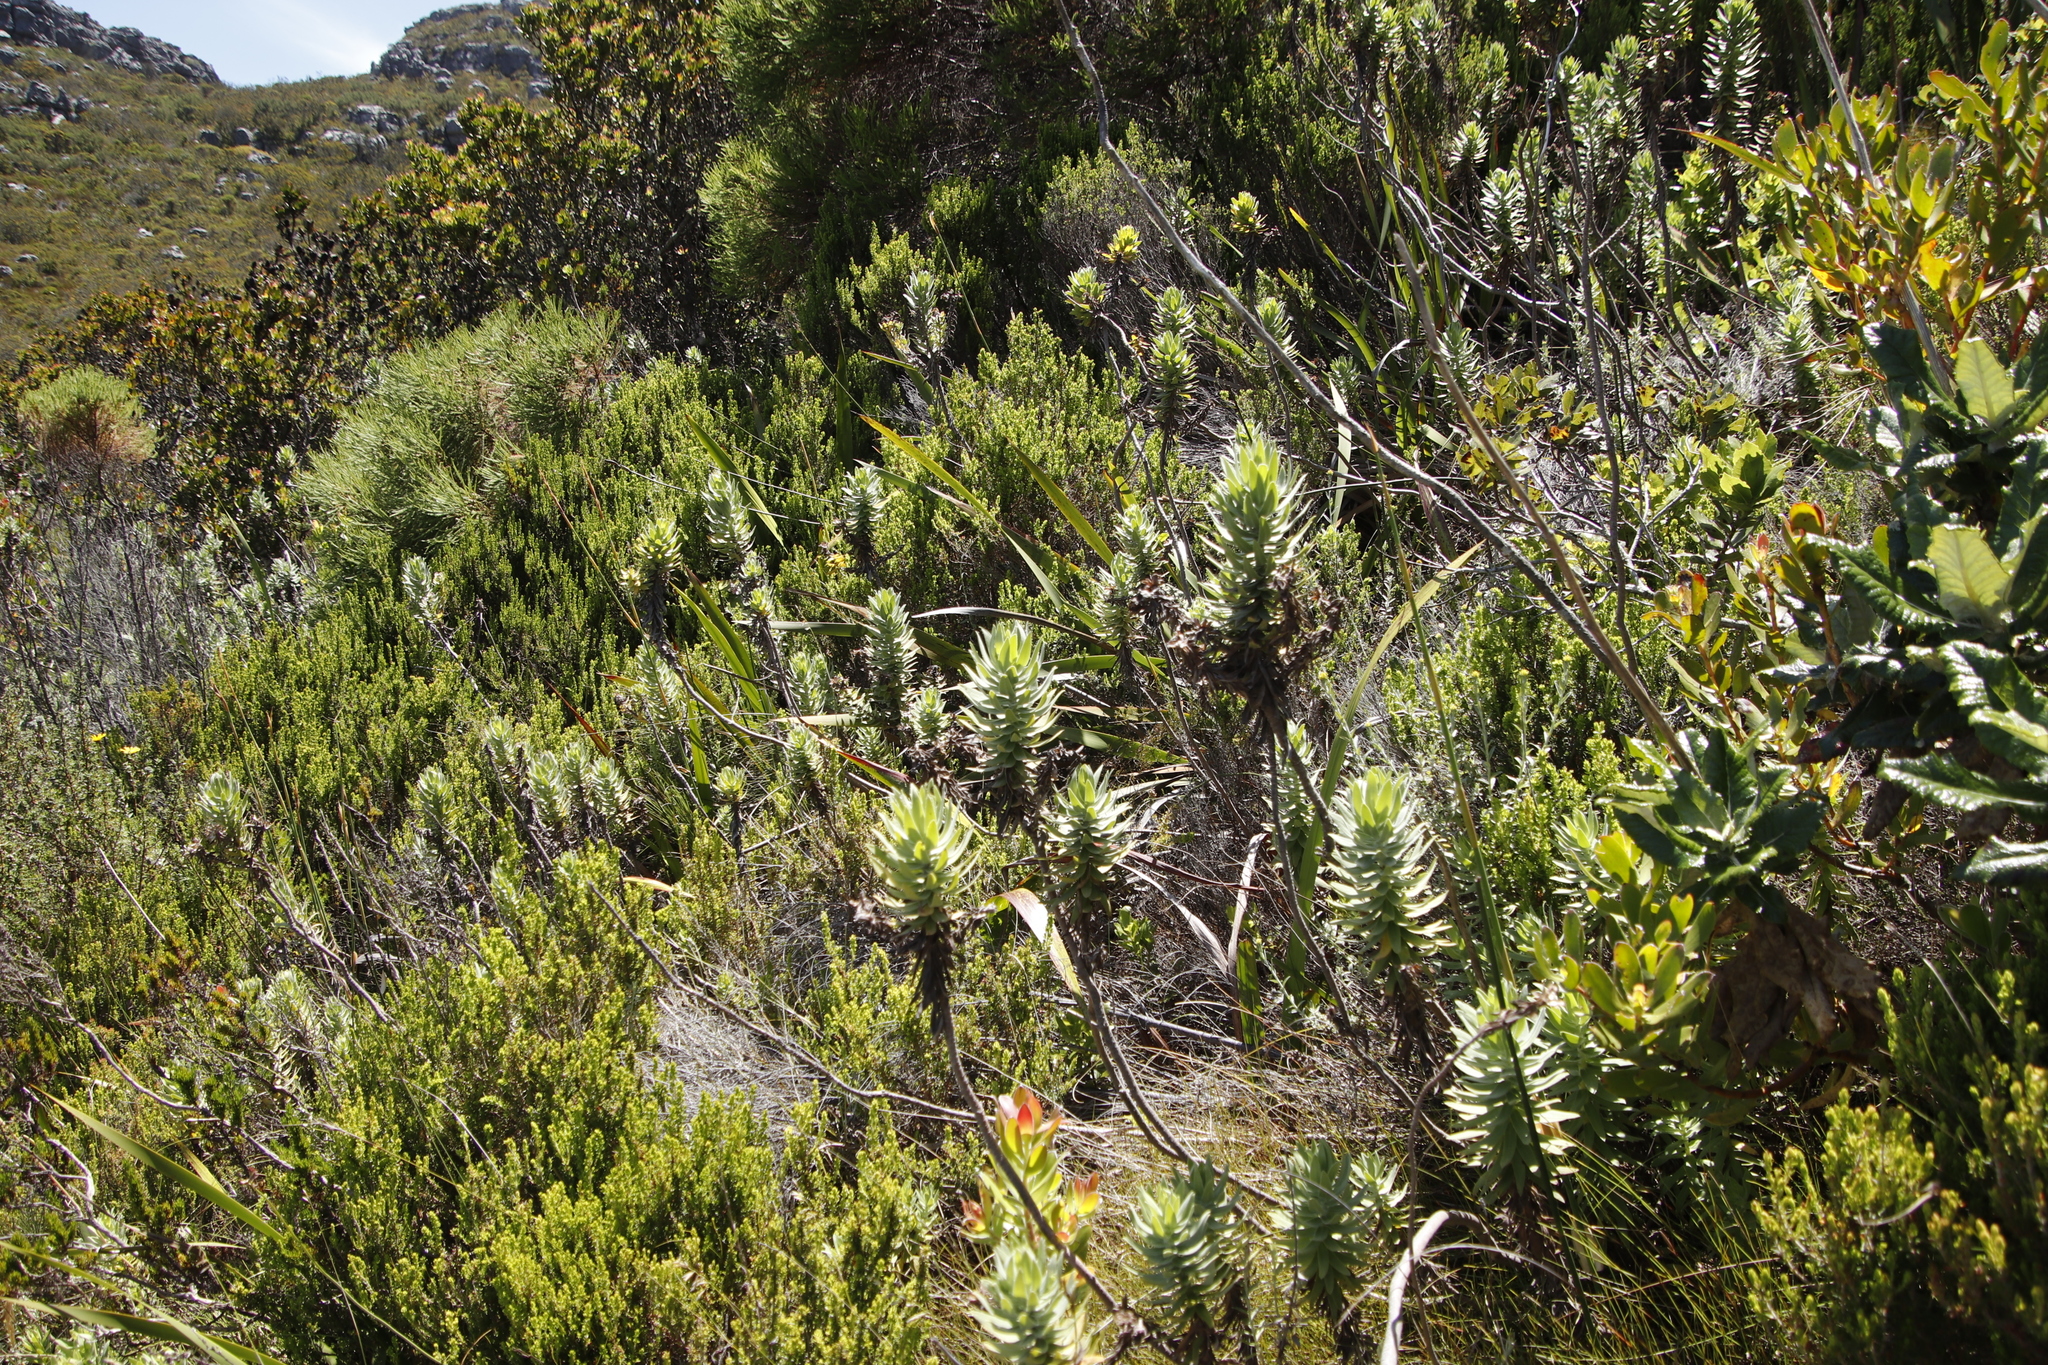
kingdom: Plantae
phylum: Tracheophyta
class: Magnoliopsida
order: Asterales
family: Asteraceae
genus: Osmitopsis
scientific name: Osmitopsis asteriscoides
